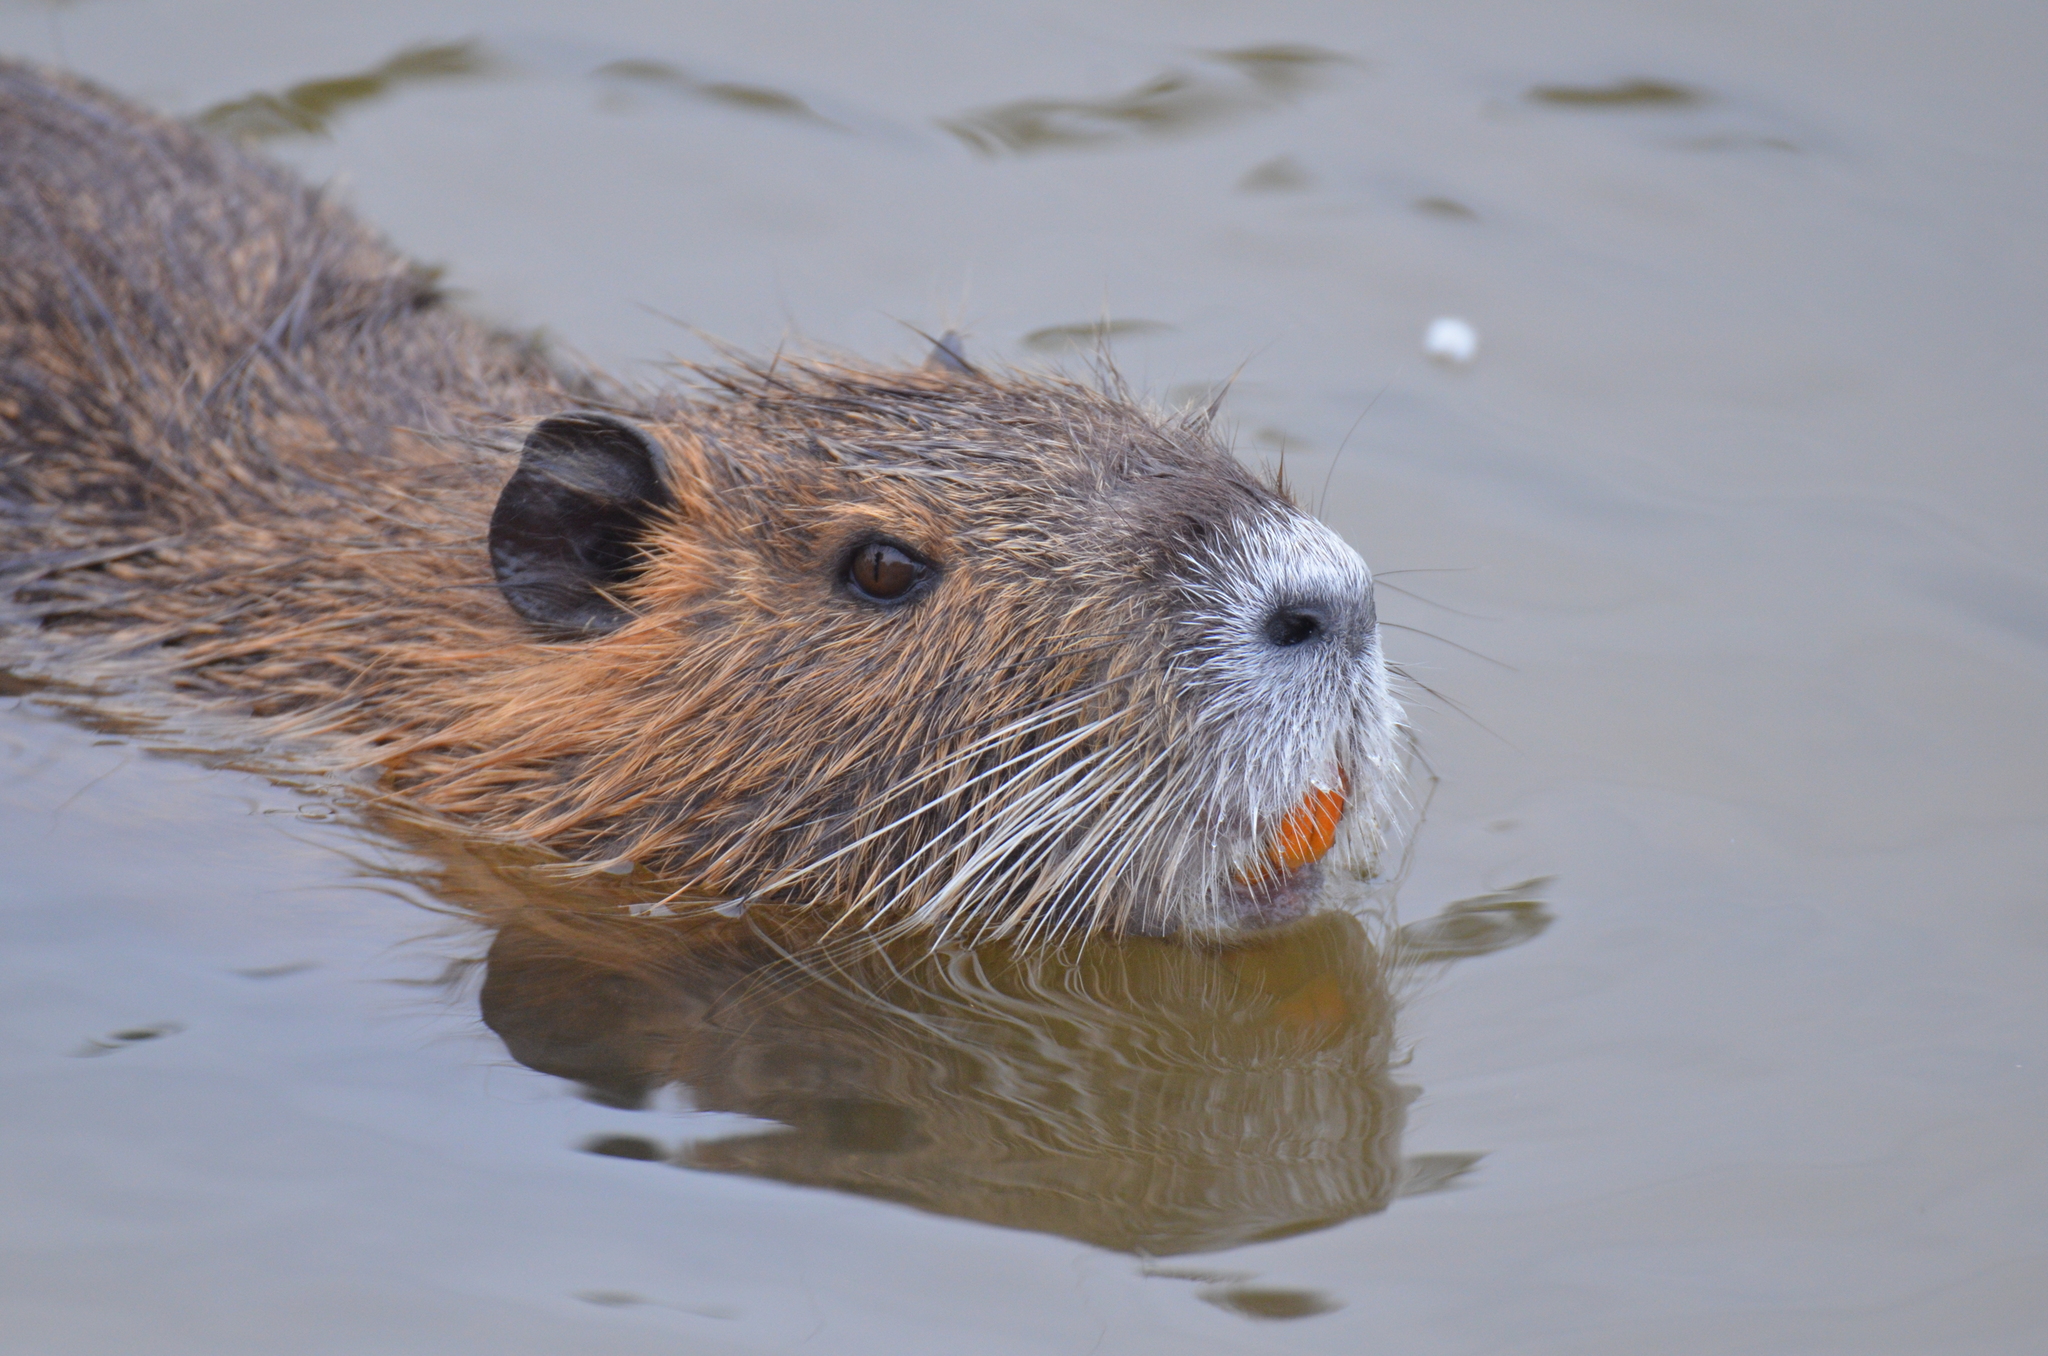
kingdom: Animalia
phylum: Chordata
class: Mammalia
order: Rodentia
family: Myocastoridae
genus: Myocastor
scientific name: Myocastor coypus
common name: Coypu
